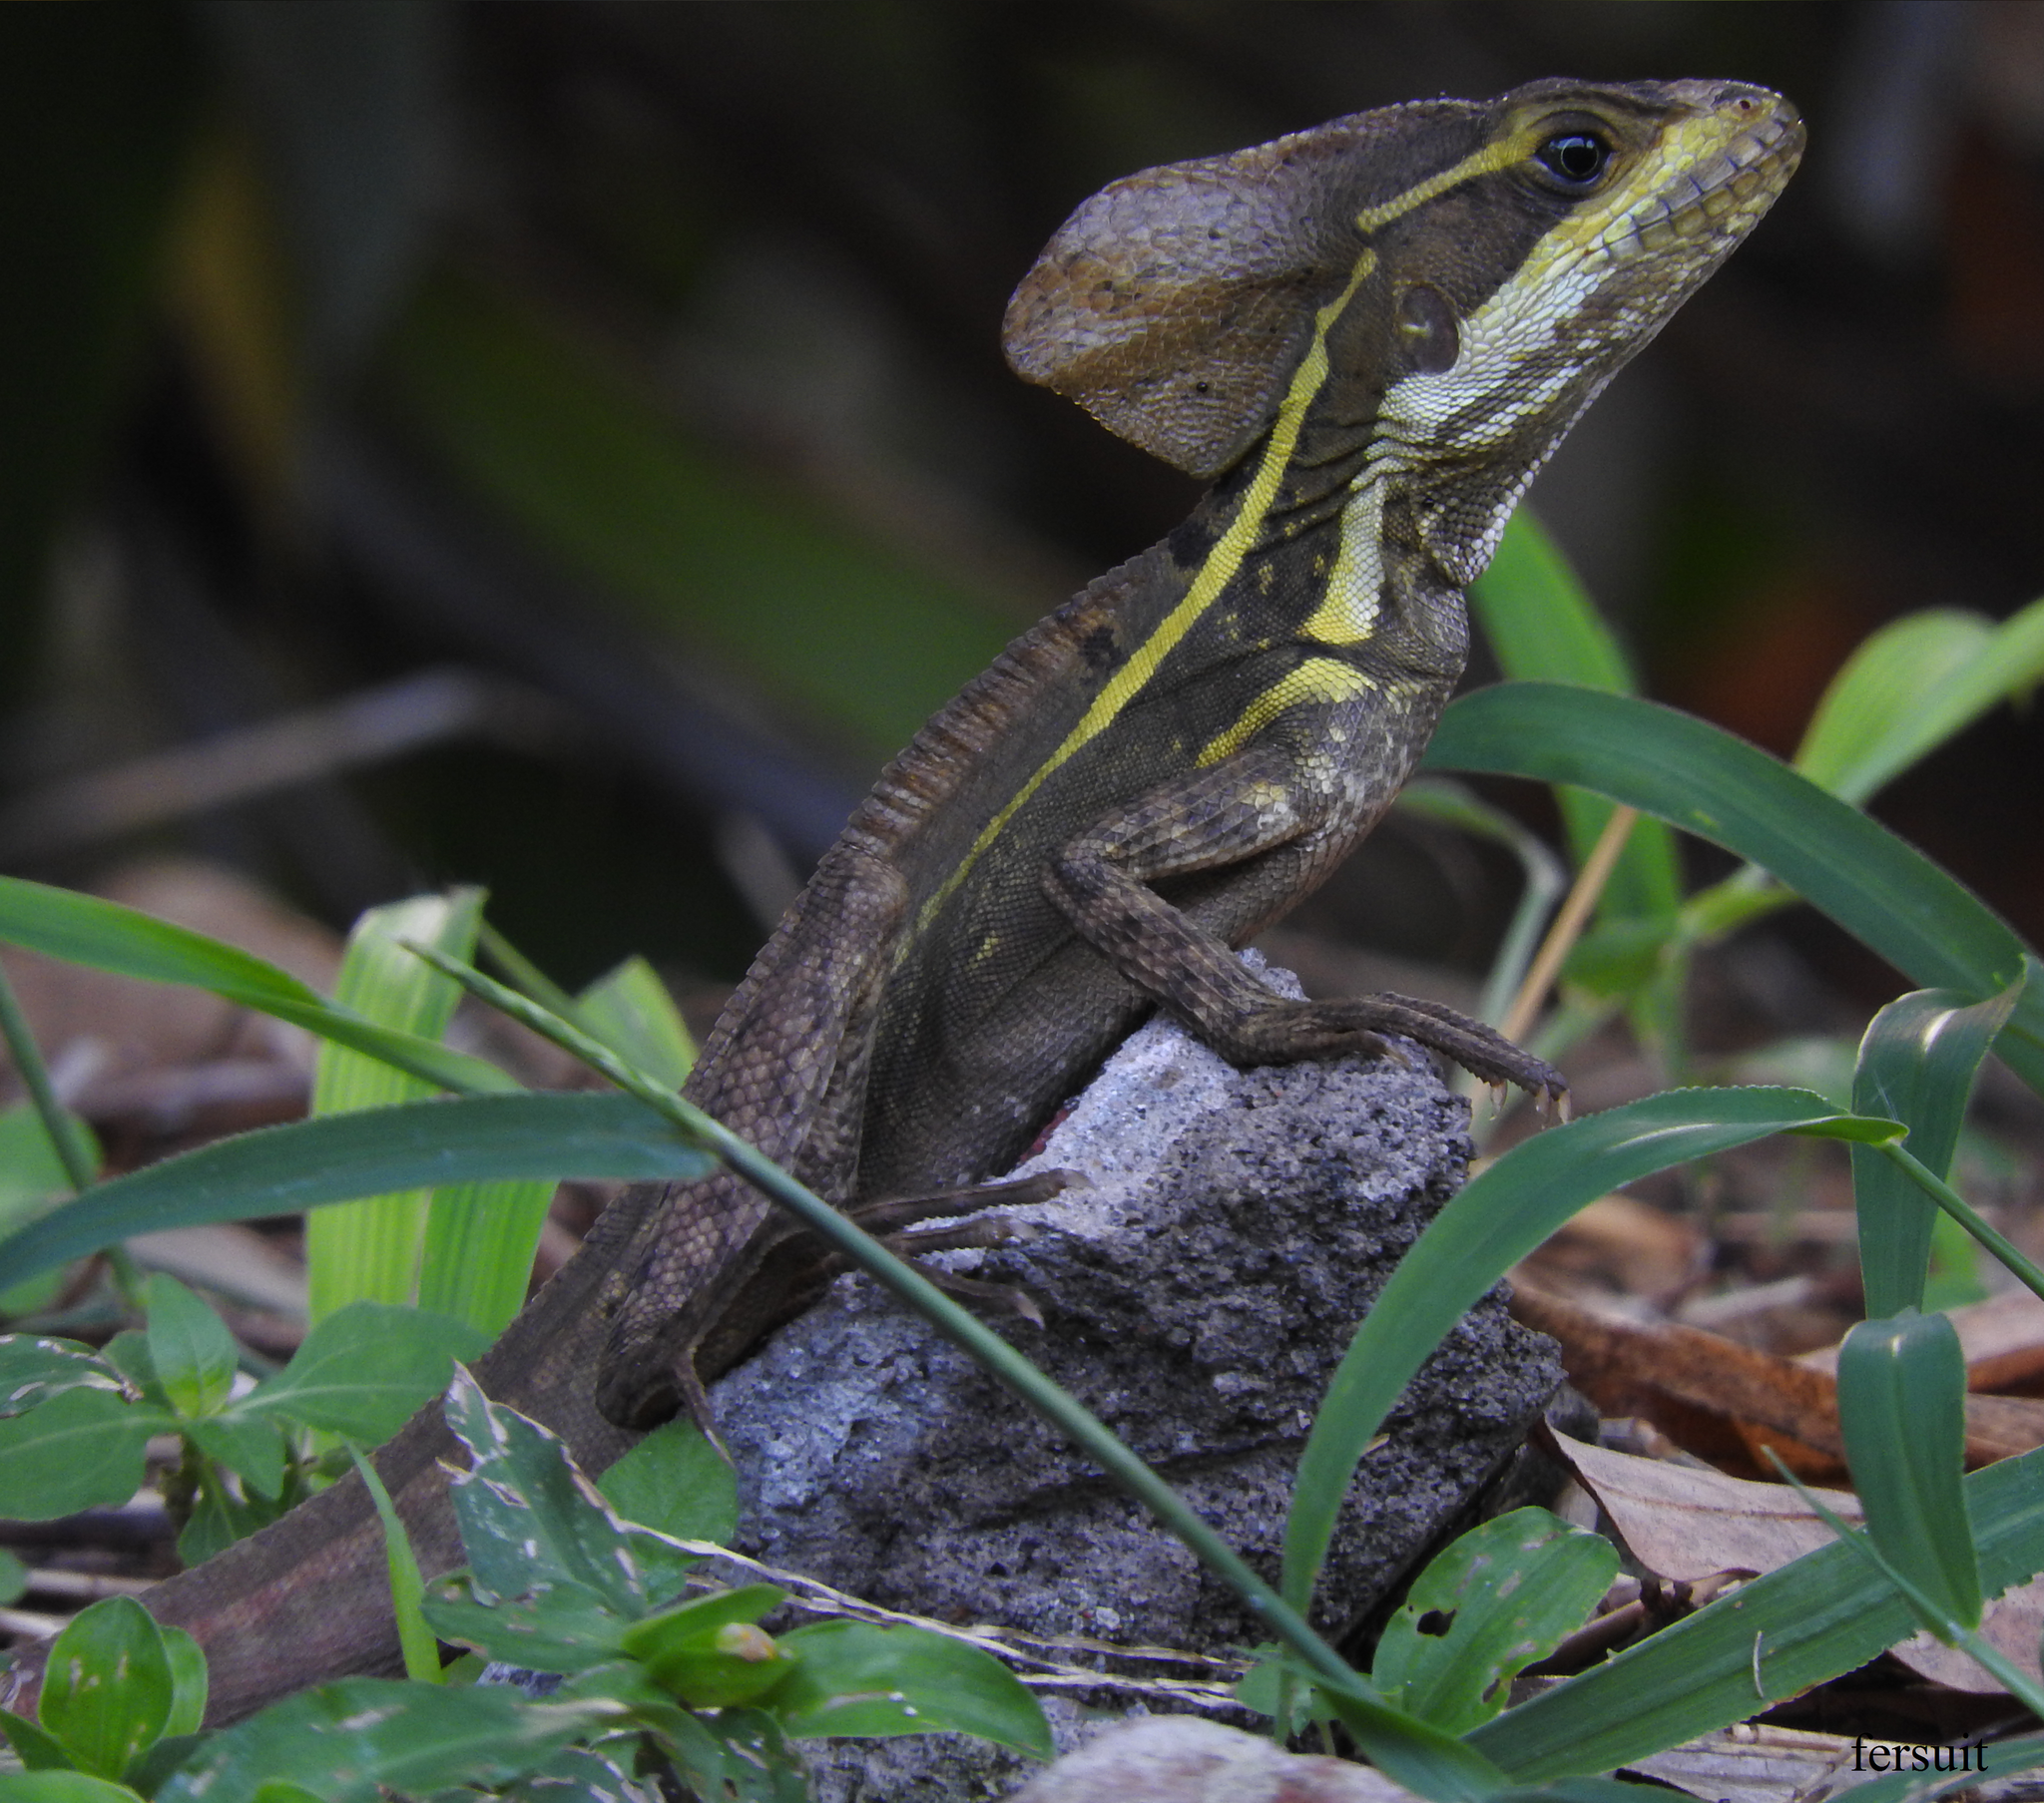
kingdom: Animalia
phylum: Chordata
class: Squamata
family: Corytophanidae
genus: Basiliscus
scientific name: Basiliscus vittatus
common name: Brown basilisk
